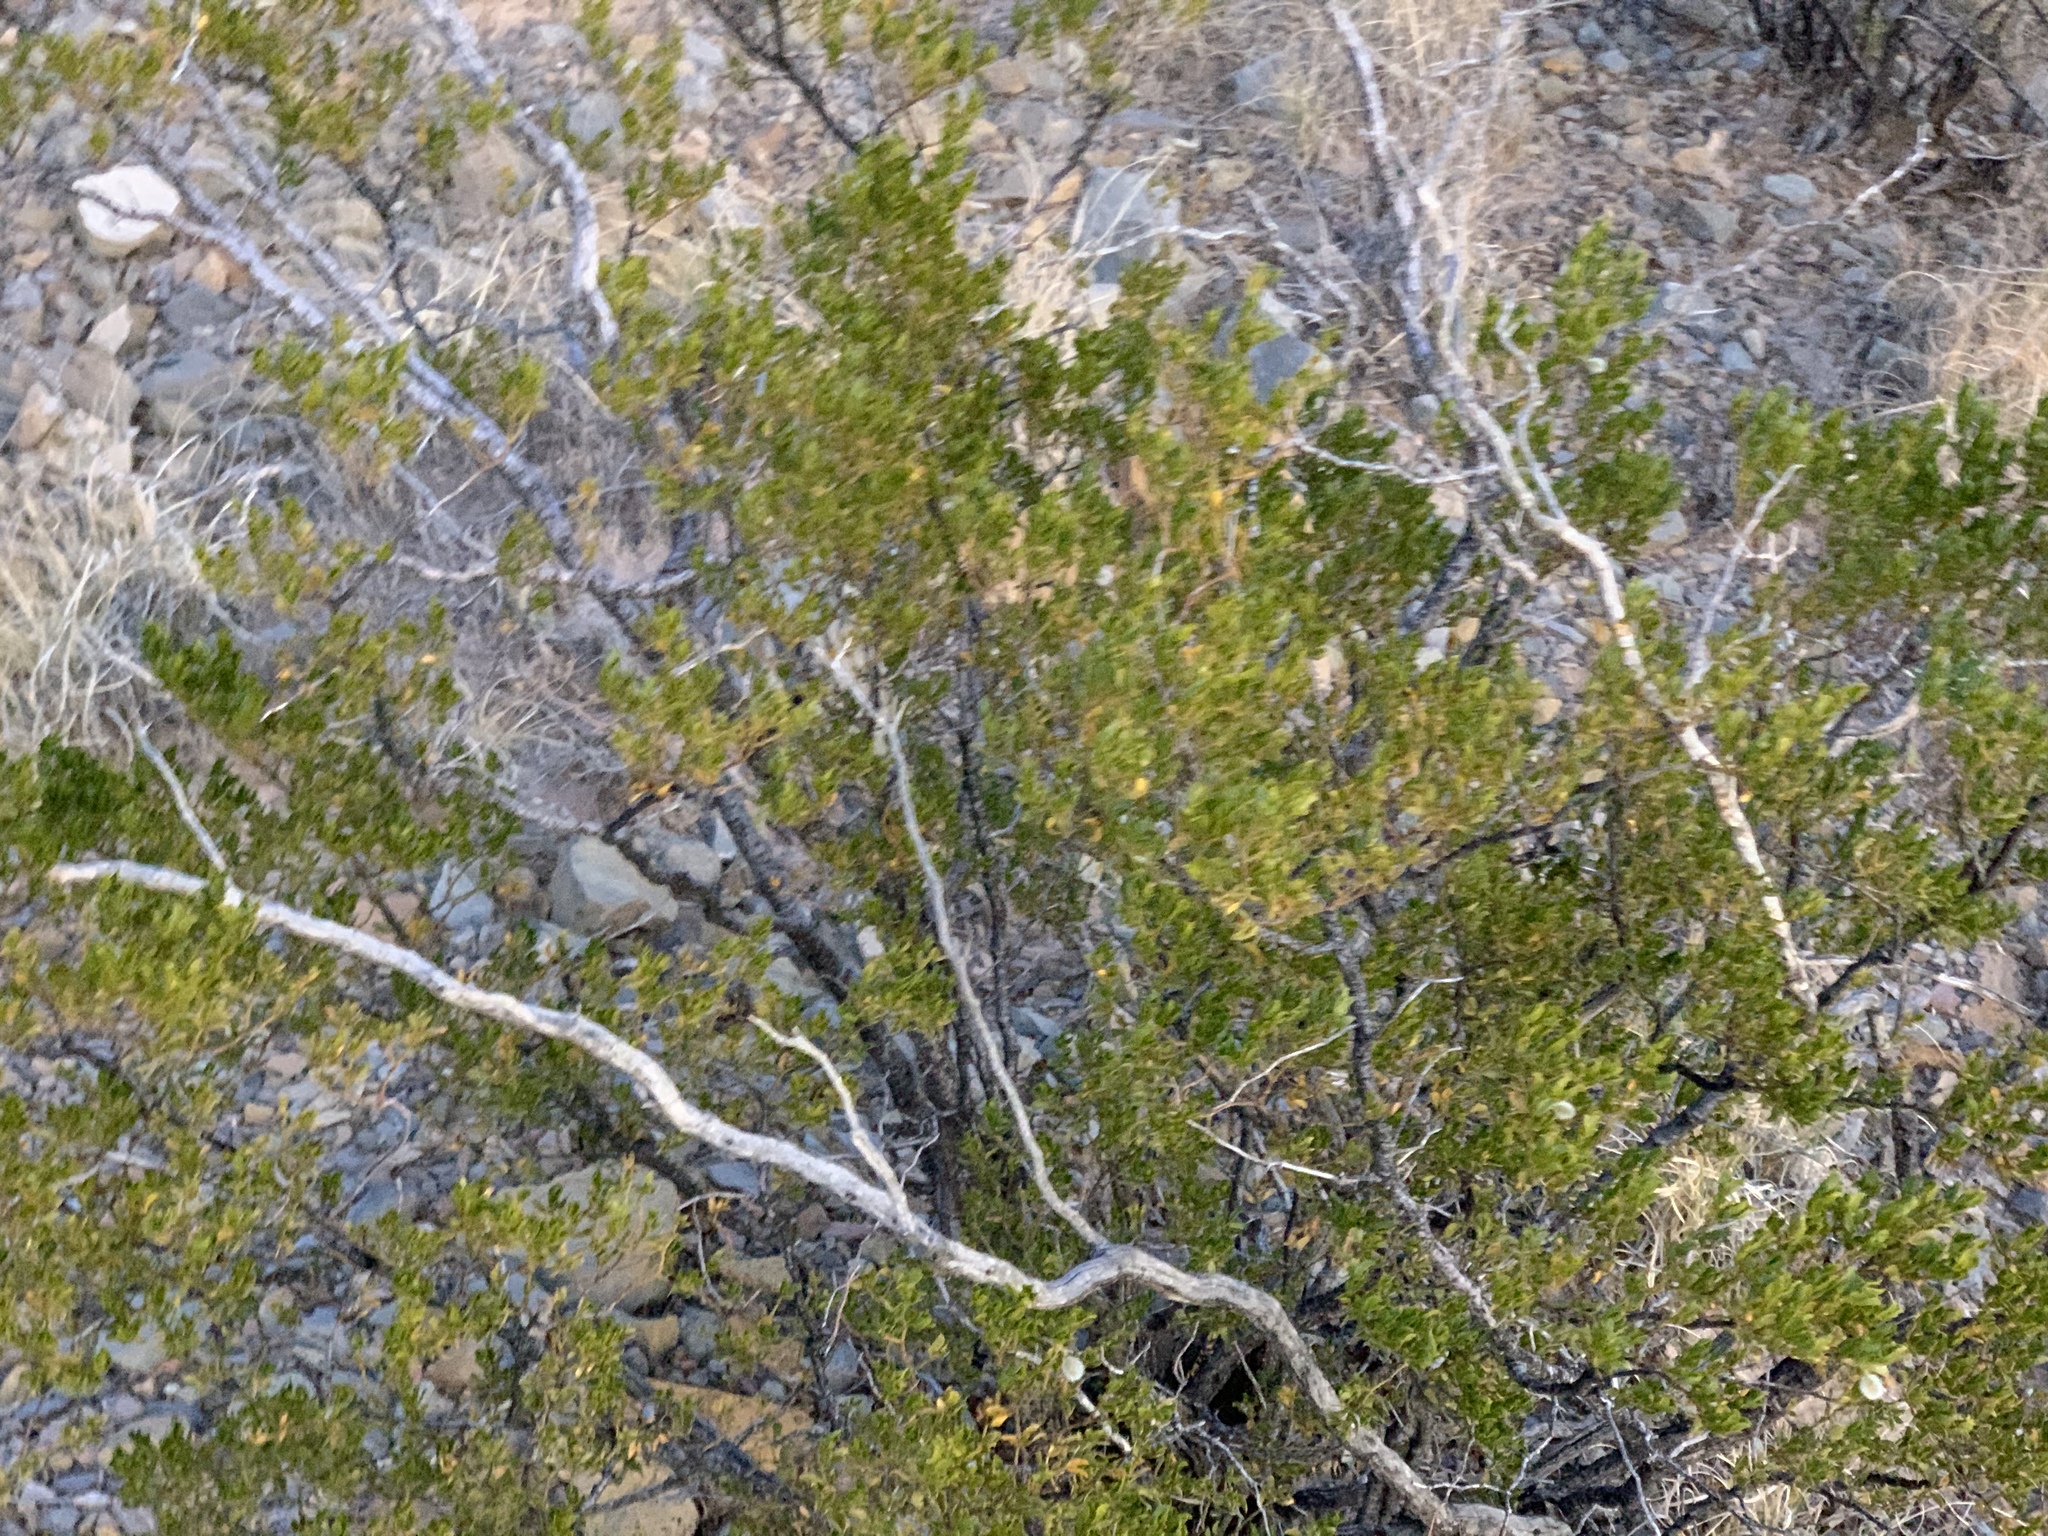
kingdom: Plantae
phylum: Tracheophyta
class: Magnoliopsida
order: Zygophyllales
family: Zygophyllaceae
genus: Larrea
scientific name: Larrea tridentata
